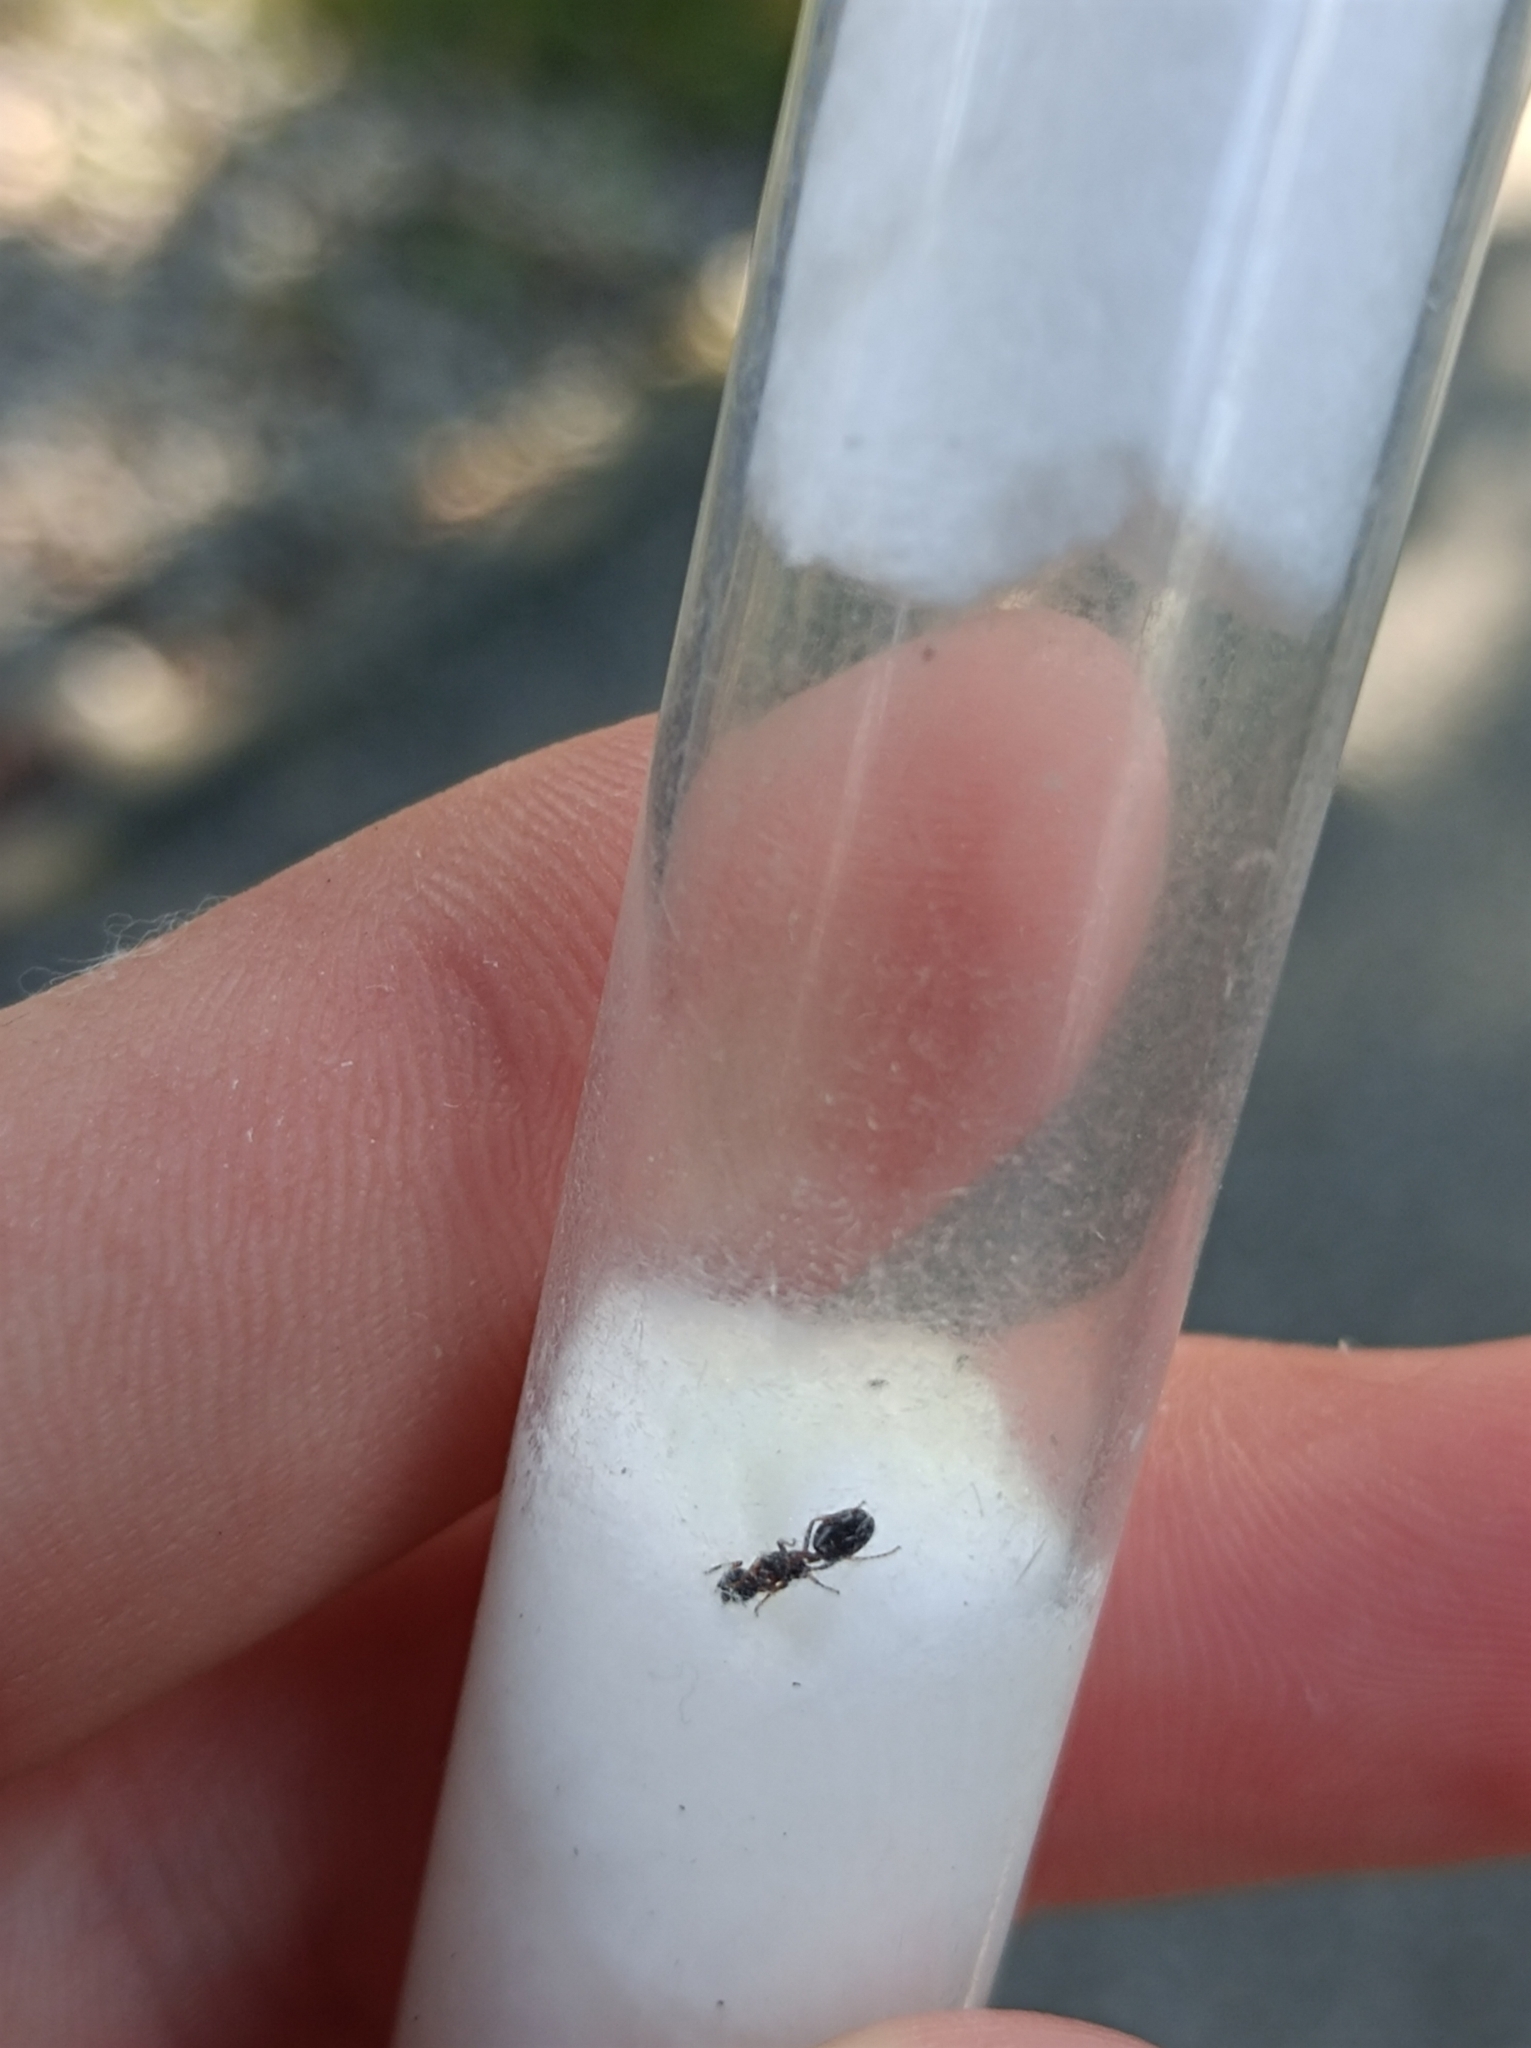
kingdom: Animalia
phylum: Arthropoda
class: Insecta
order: Hymenoptera
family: Formicidae
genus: Dolichoderus
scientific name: Dolichoderus quadripunctatus
